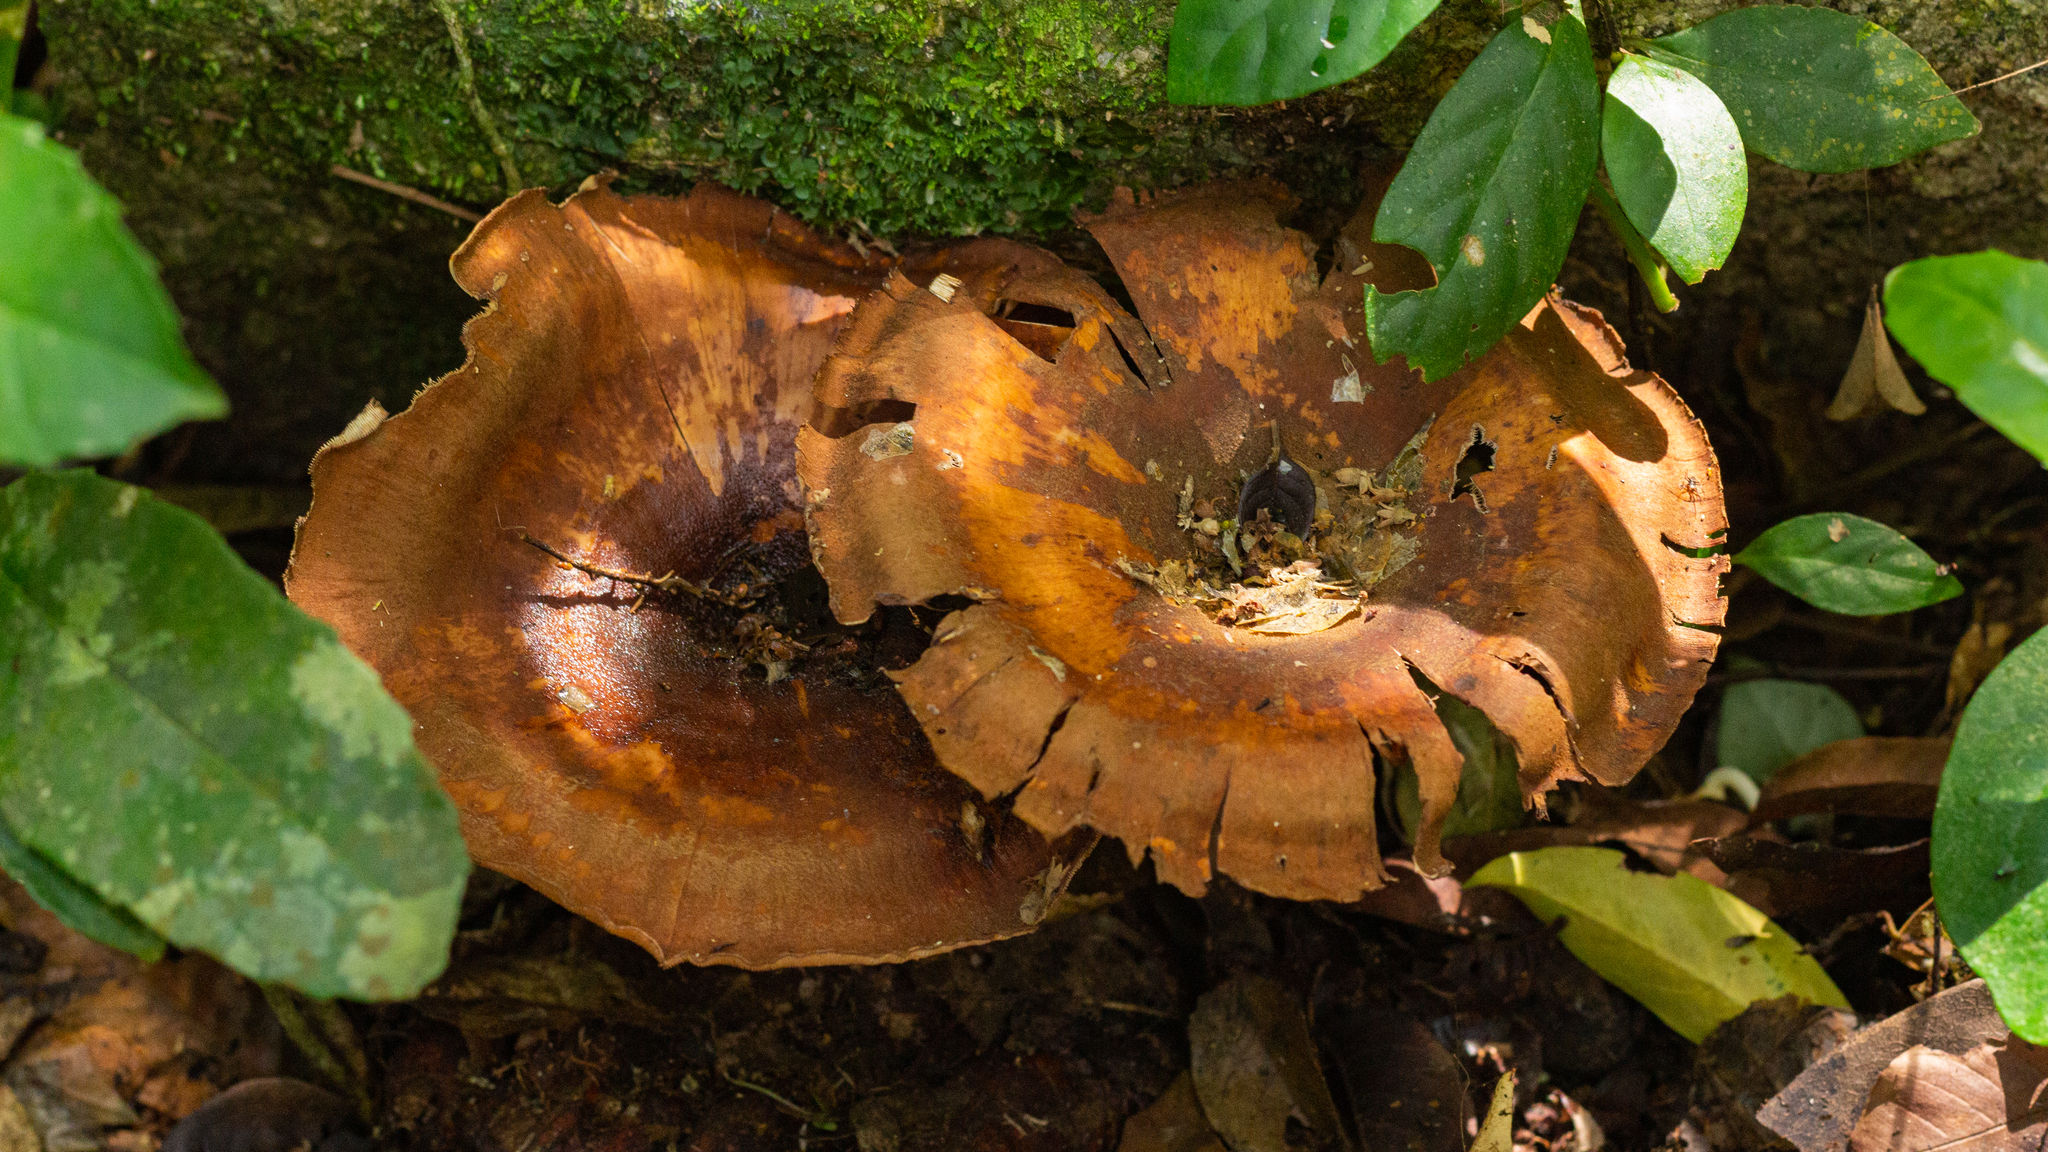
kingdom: Fungi
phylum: Basidiomycota
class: Agaricomycetes
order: Polyporales
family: Polyporaceae
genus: Lentinus
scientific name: Lentinus velutinus
